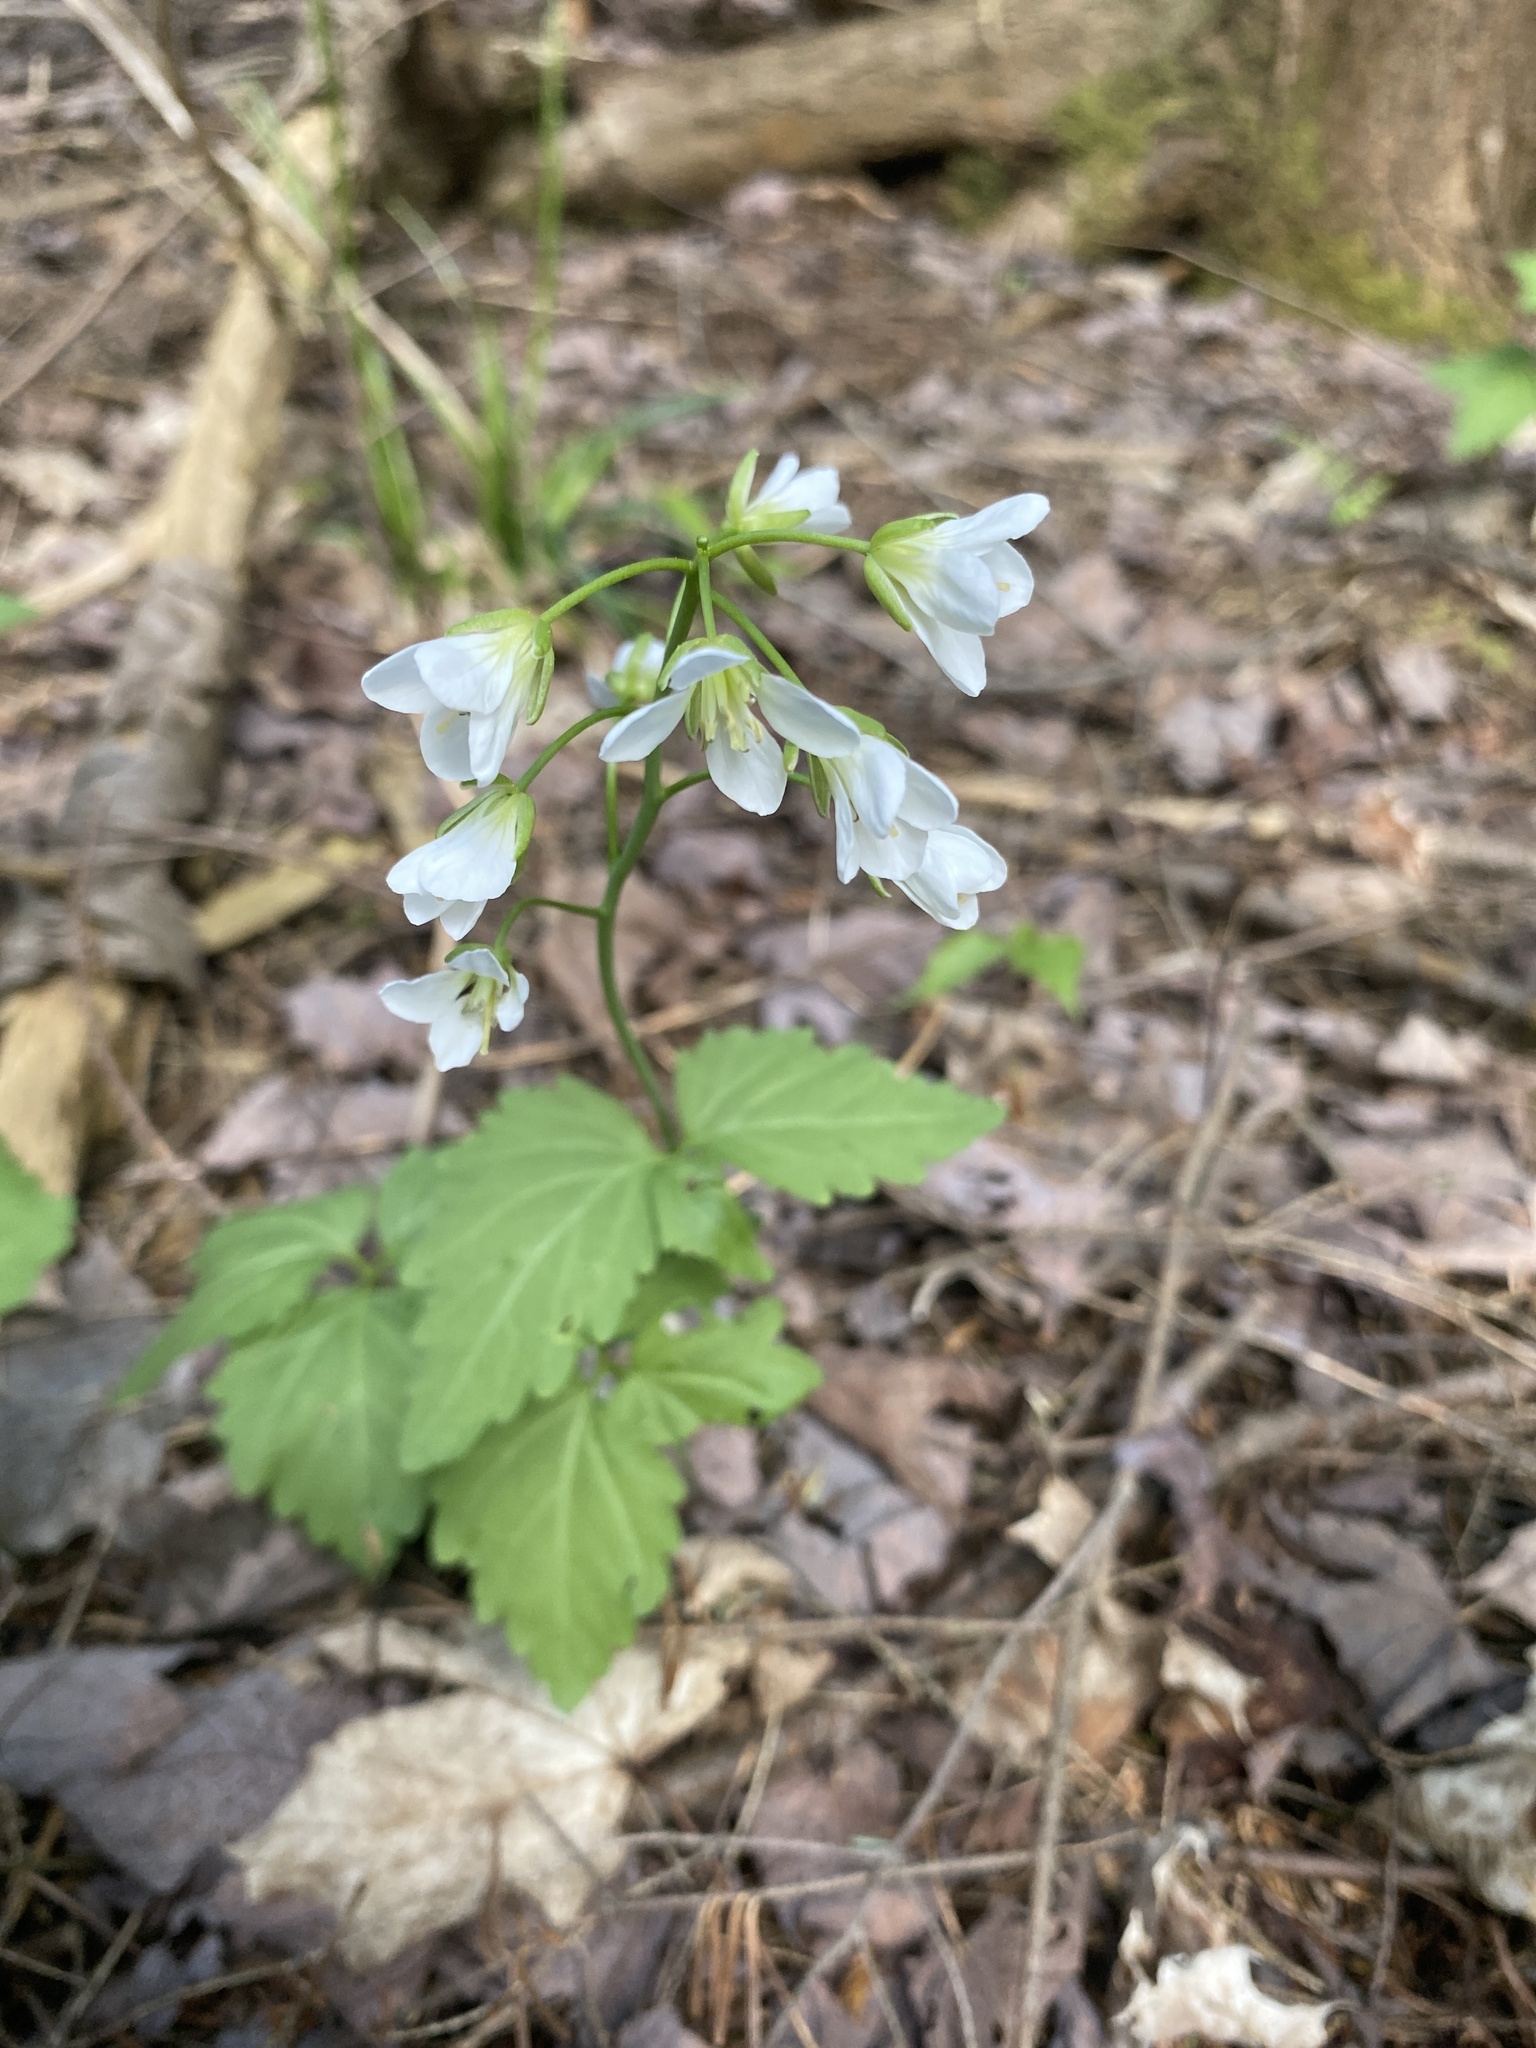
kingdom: Plantae
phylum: Tracheophyta
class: Magnoliopsida
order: Brassicales
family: Brassicaceae
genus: Cardamine
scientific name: Cardamine diphylla
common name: Broad-leaved toothwort
